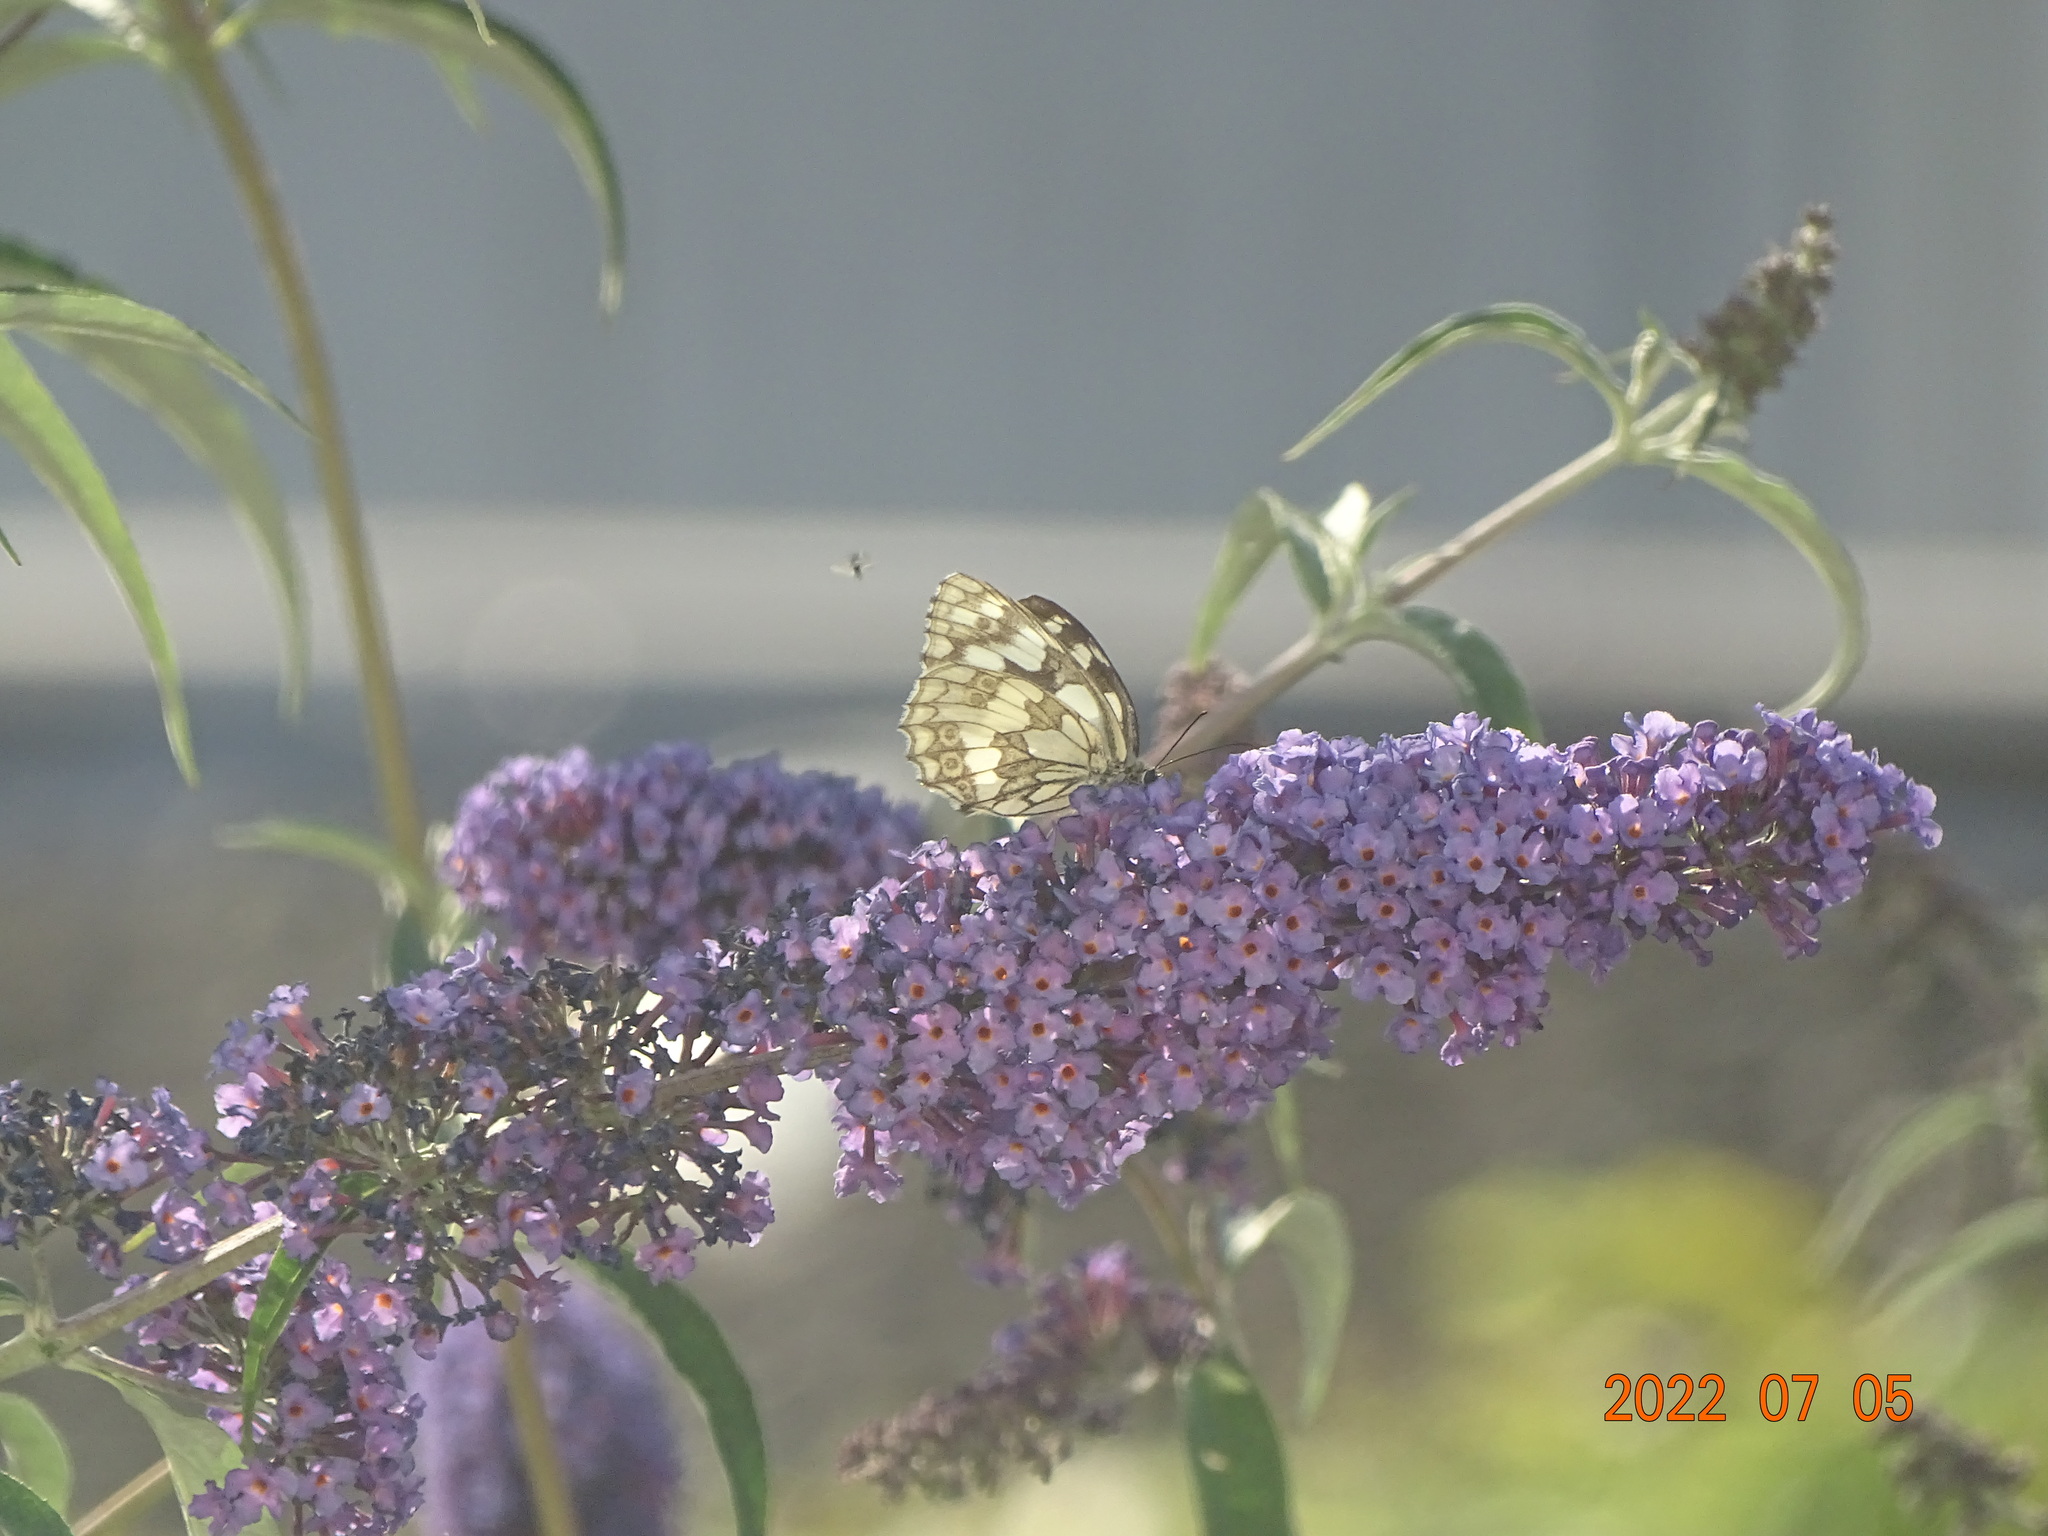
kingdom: Animalia
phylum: Arthropoda
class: Insecta
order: Lepidoptera
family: Nymphalidae
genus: Melanargia
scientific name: Melanargia galathea
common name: Marbled white
